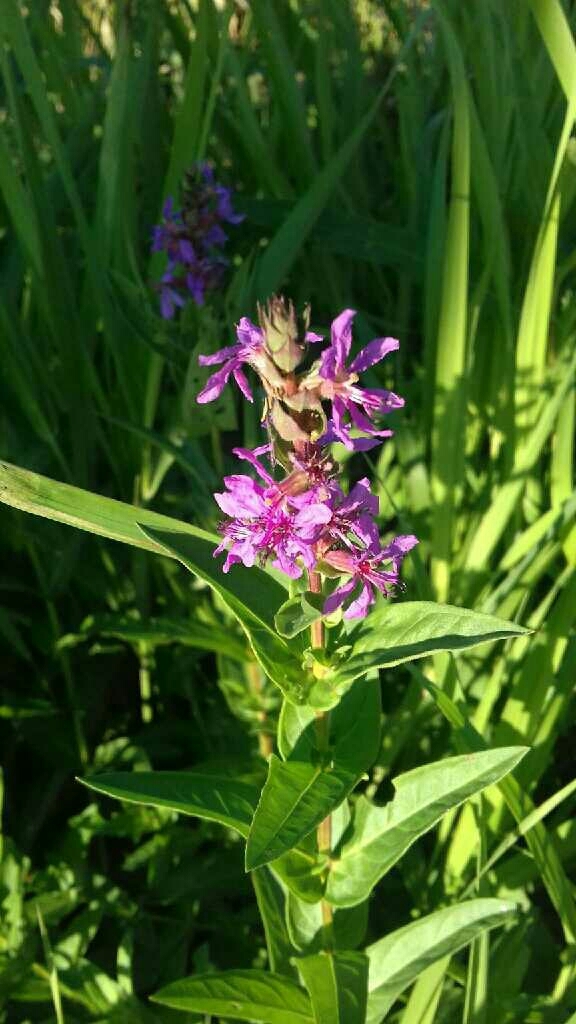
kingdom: Plantae
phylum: Tracheophyta
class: Magnoliopsida
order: Myrtales
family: Lythraceae
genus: Lythrum
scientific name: Lythrum salicaria
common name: Purple loosestrife
